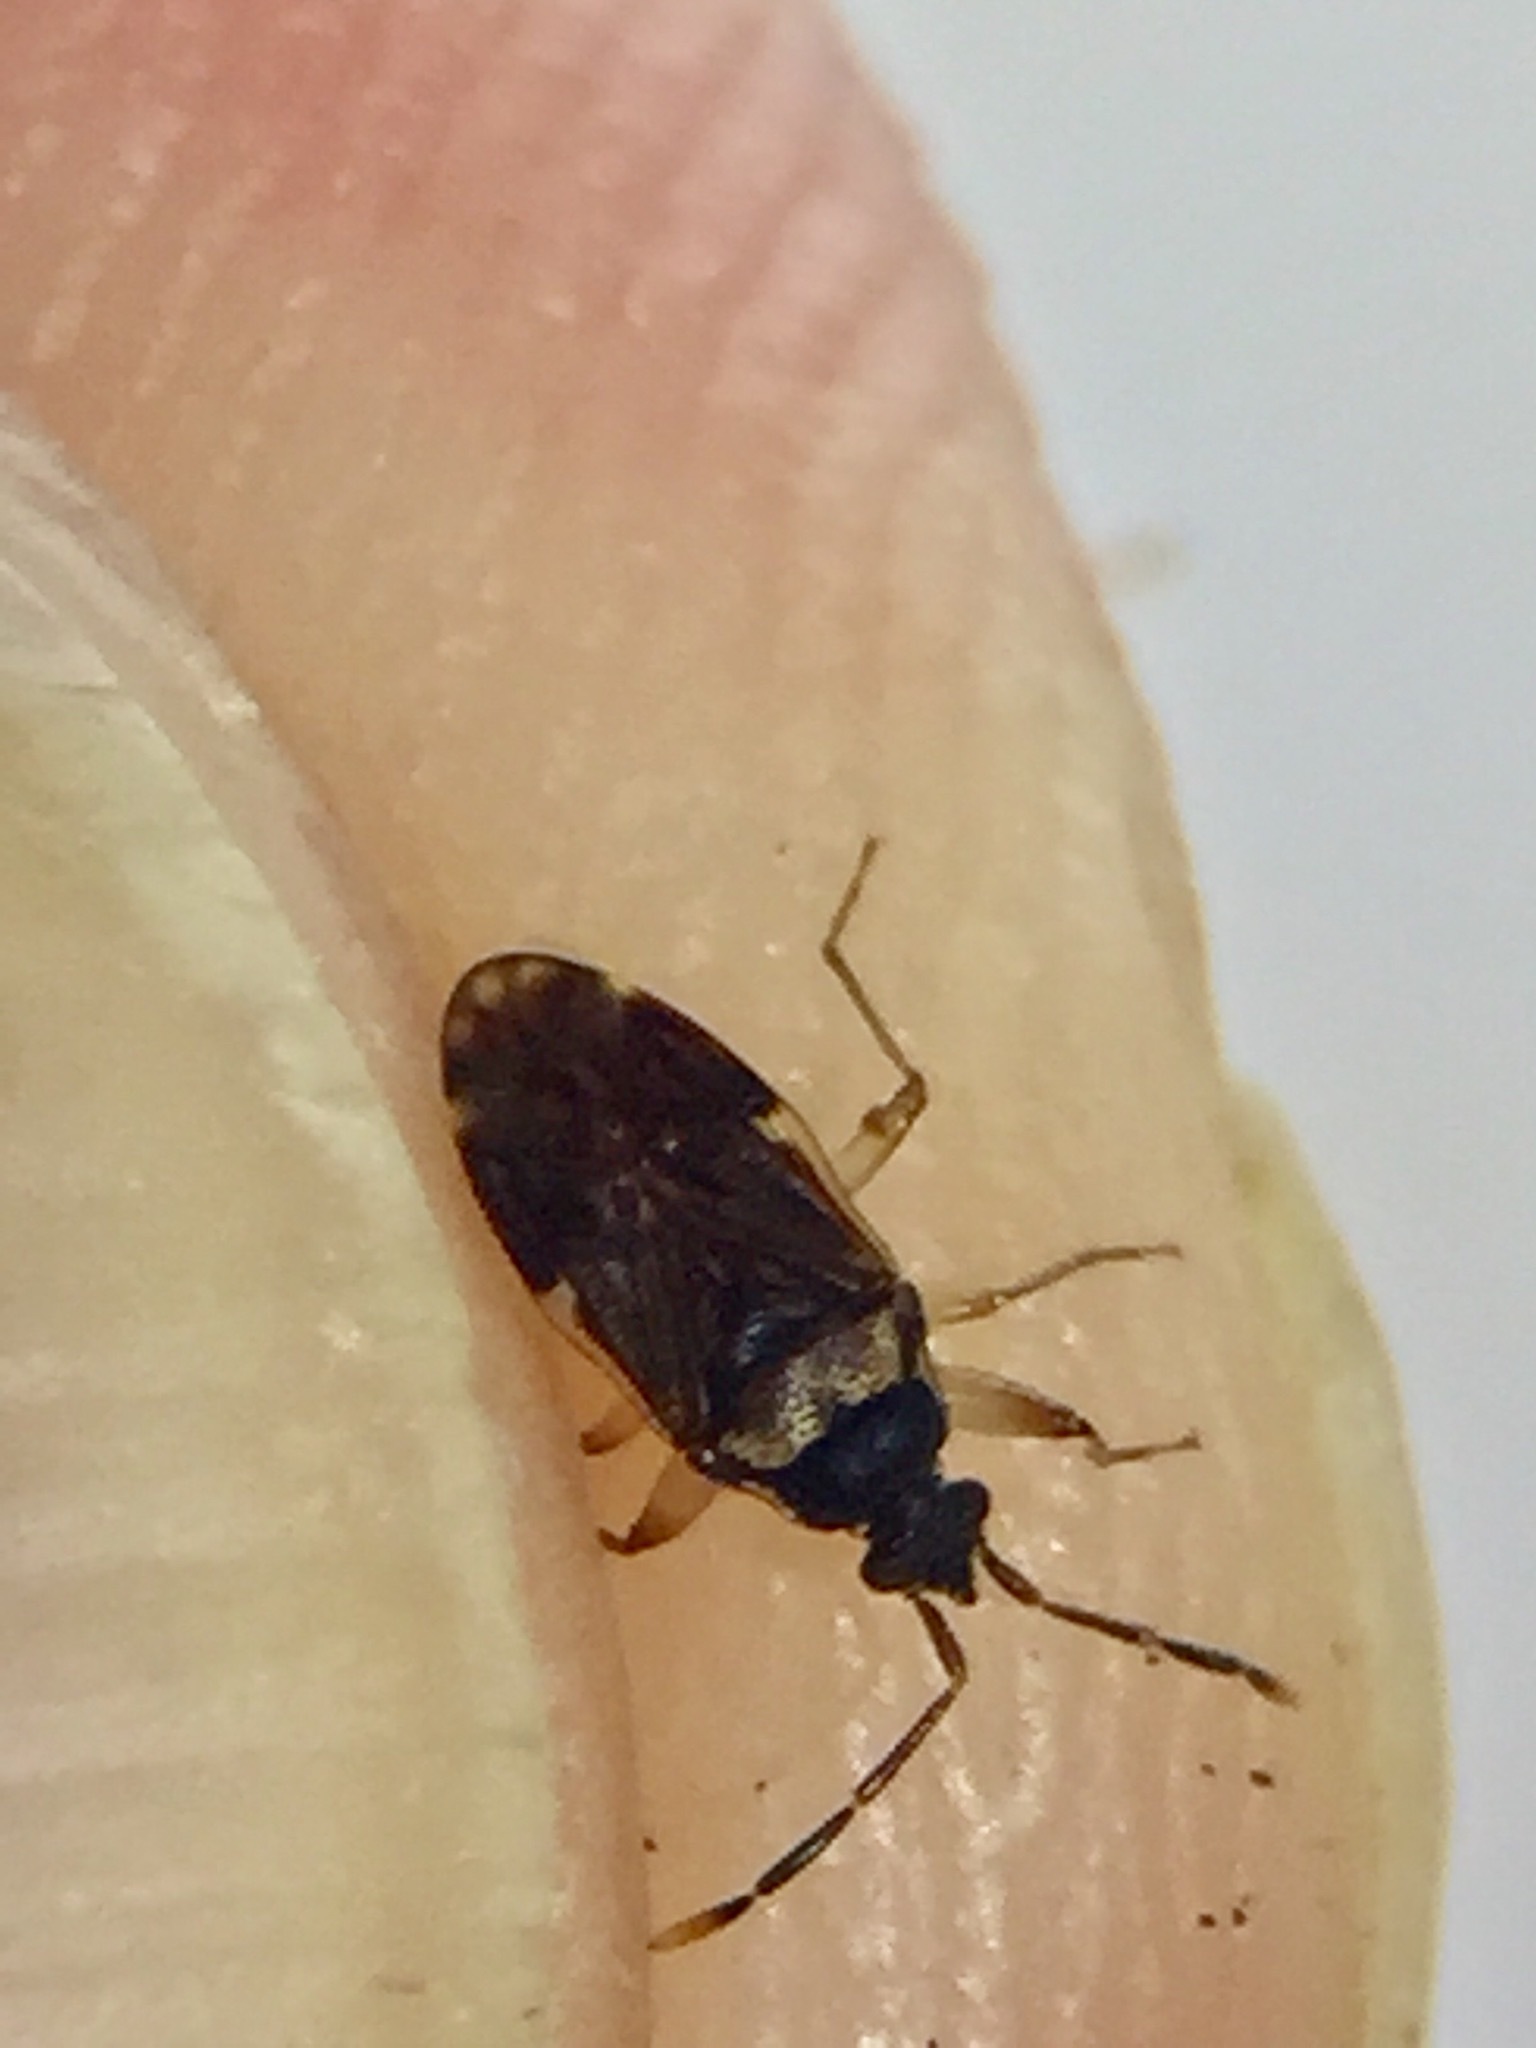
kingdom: Animalia
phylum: Arthropoda
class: Insecta
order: Hemiptera
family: Rhyparochromidae
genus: Grossander
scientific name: Grossander major
